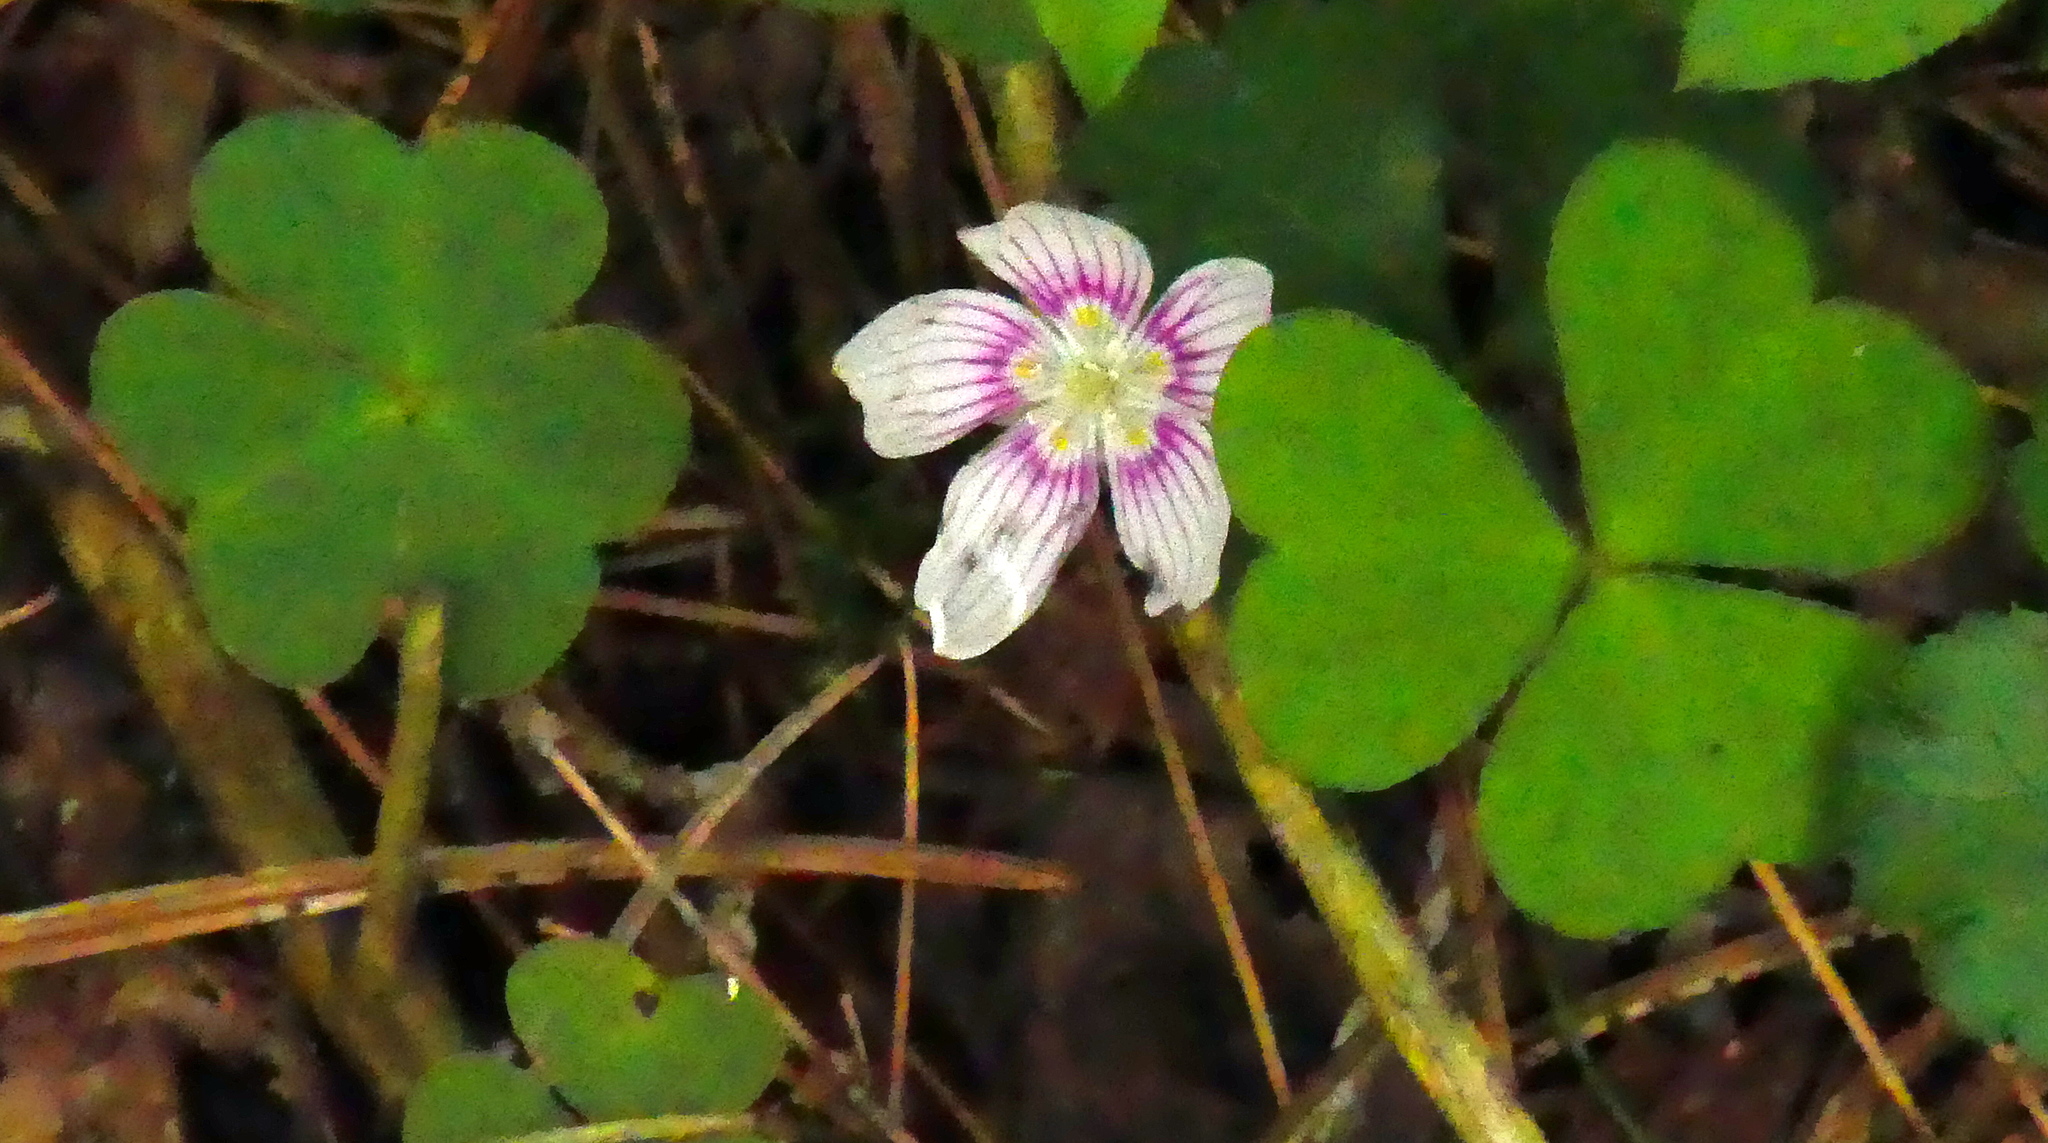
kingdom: Plantae
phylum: Tracheophyta
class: Magnoliopsida
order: Oxalidales
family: Oxalidaceae
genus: Oxalis
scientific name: Oxalis montana
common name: American wood-sorrel
